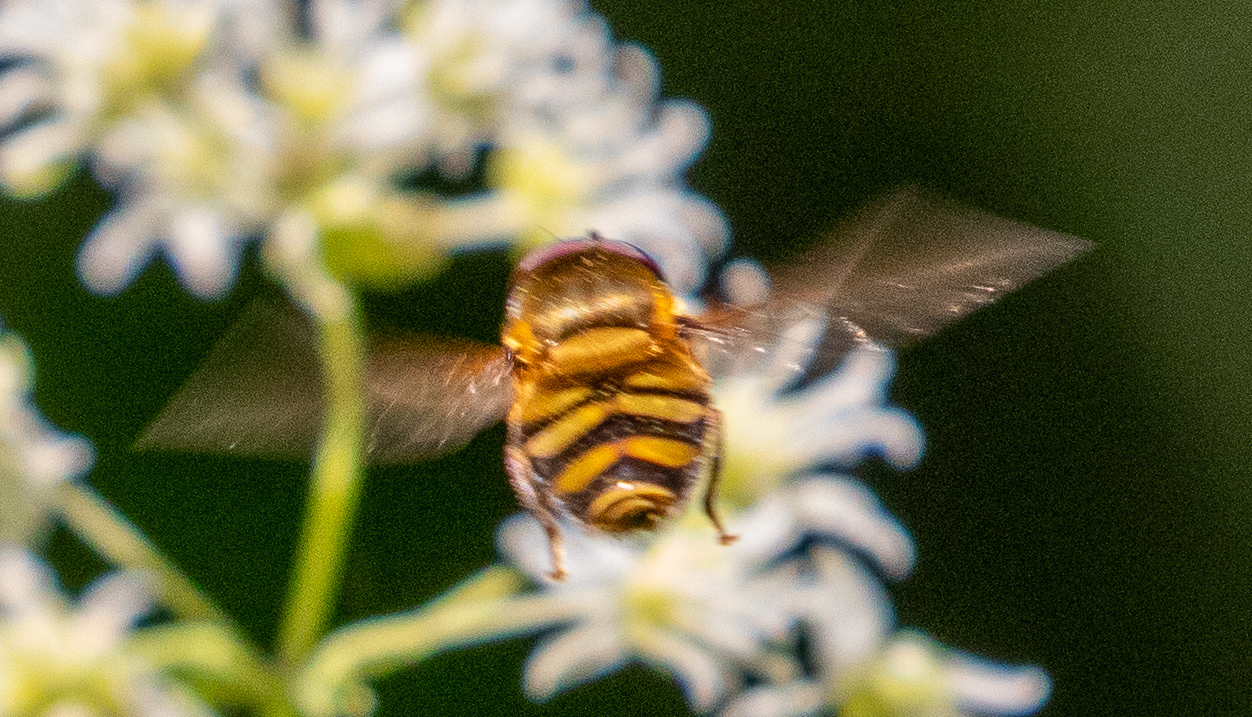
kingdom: Animalia
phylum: Arthropoda
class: Insecta
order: Diptera
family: Syrphidae
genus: Syrphus
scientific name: Syrphus
